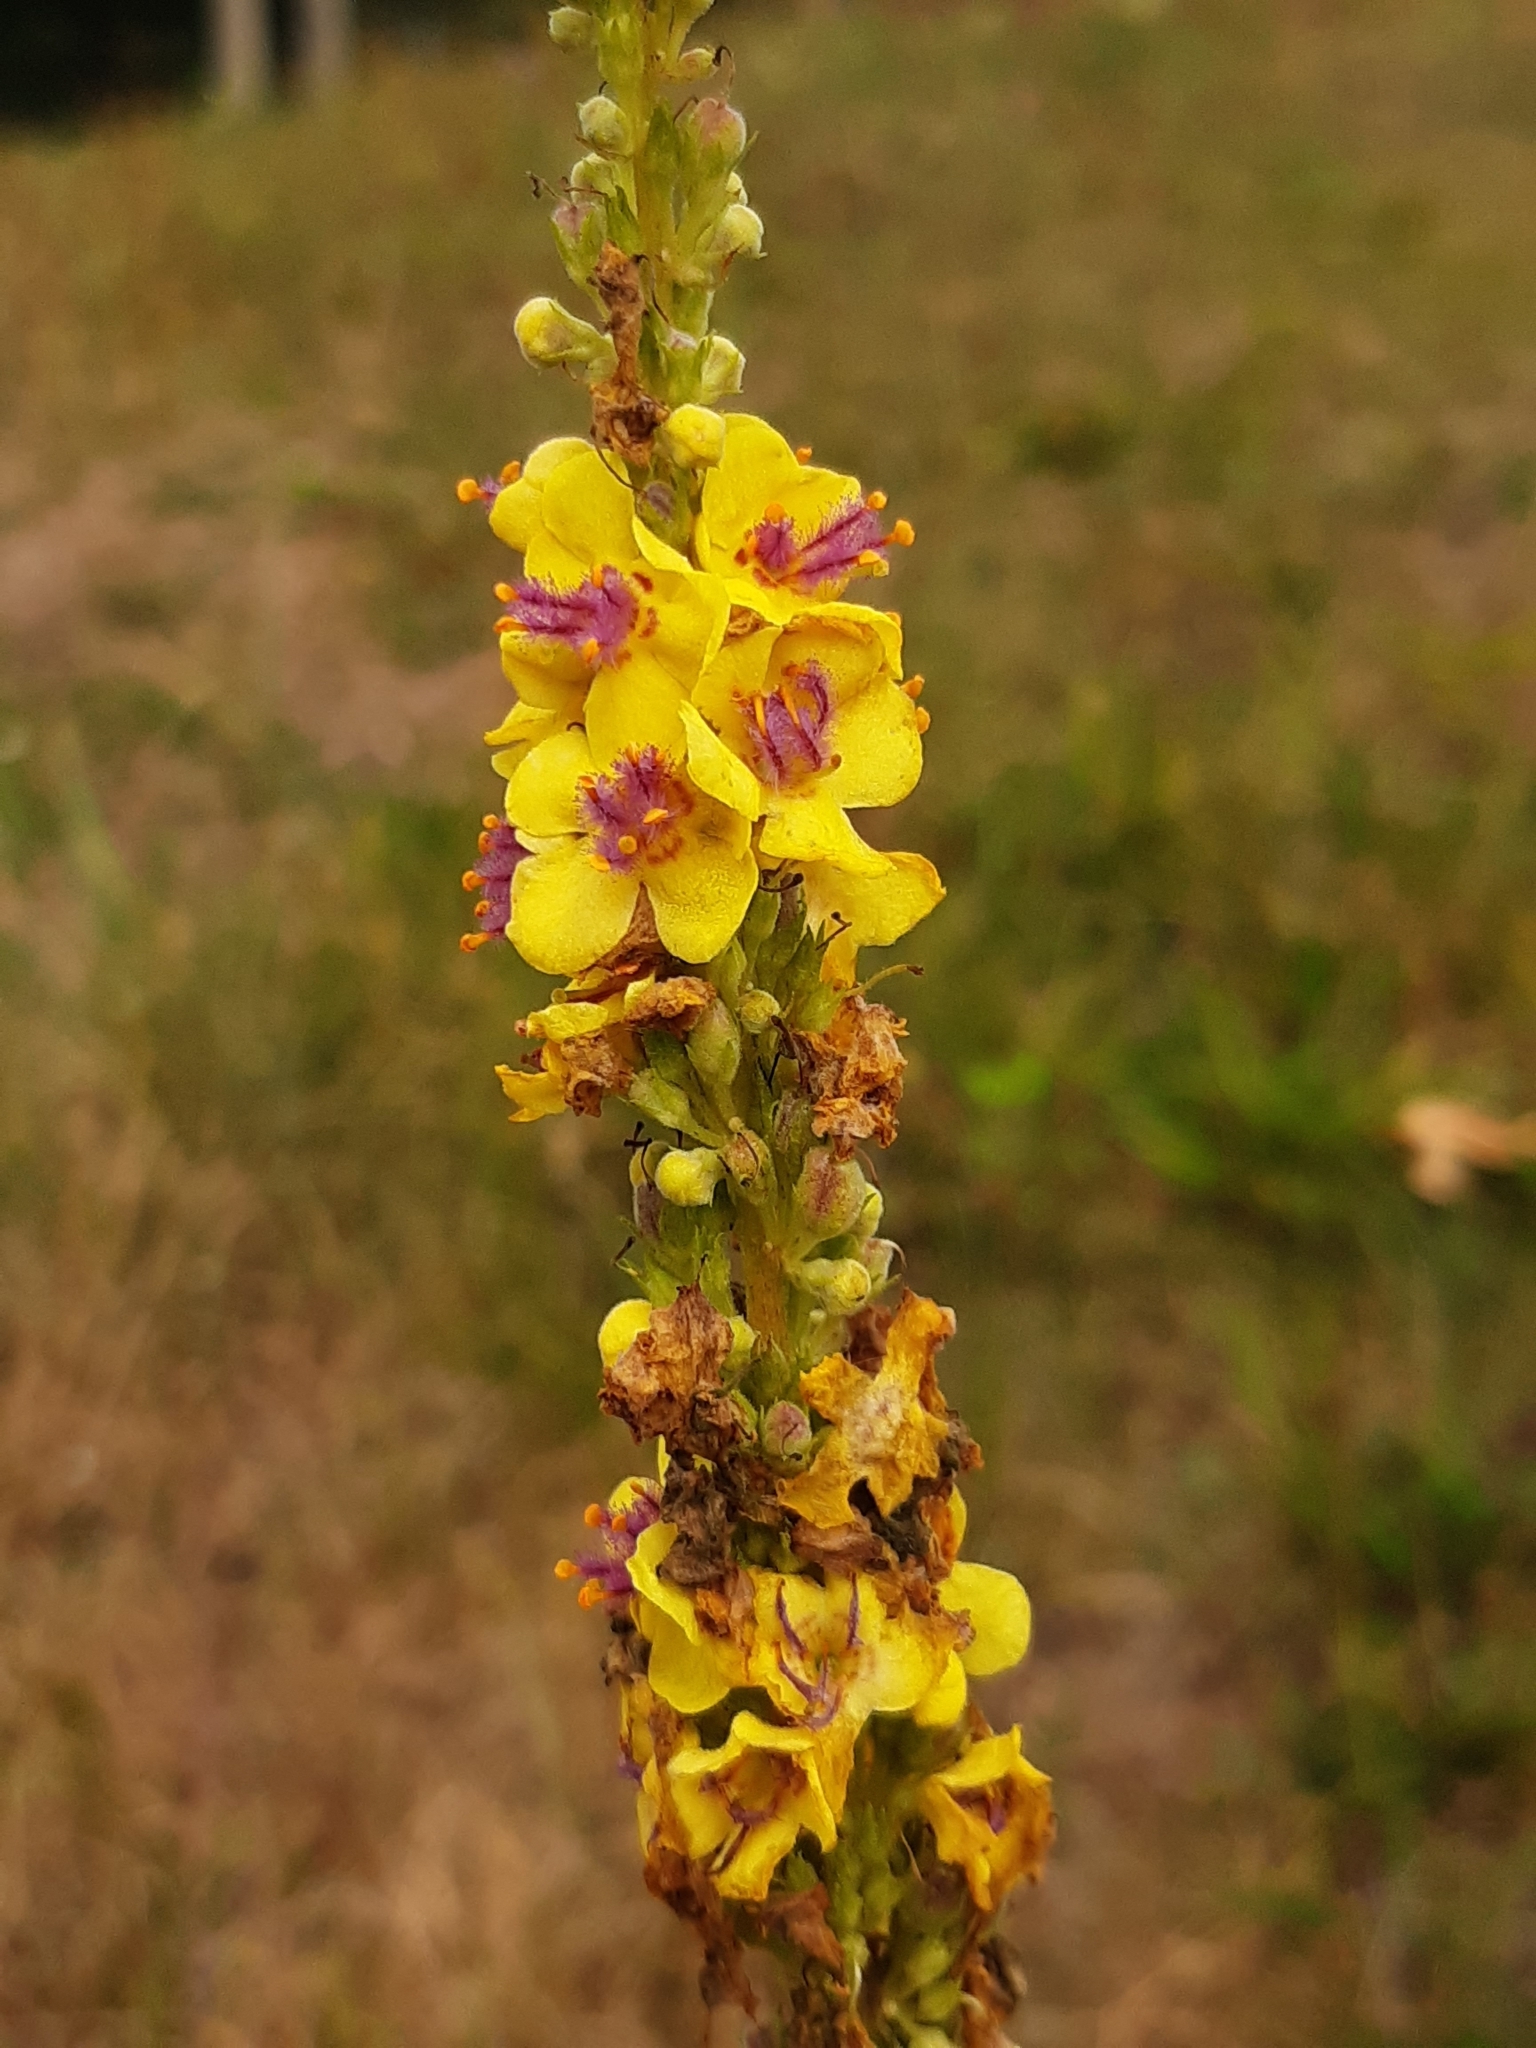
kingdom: Plantae
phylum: Tracheophyta
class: Magnoliopsida
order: Lamiales
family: Scrophulariaceae
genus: Verbascum
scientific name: Verbascum nigrum
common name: Dark mullein
